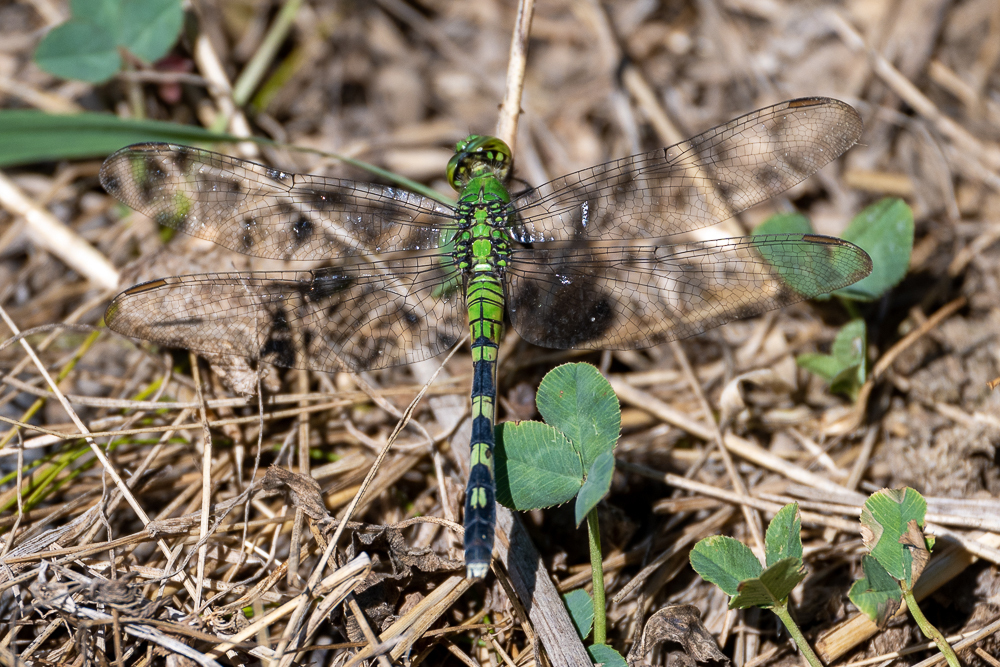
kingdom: Animalia
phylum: Arthropoda
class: Insecta
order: Odonata
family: Libellulidae
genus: Erythemis
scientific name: Erythemis simplicicollis
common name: Eastern pondhawk
